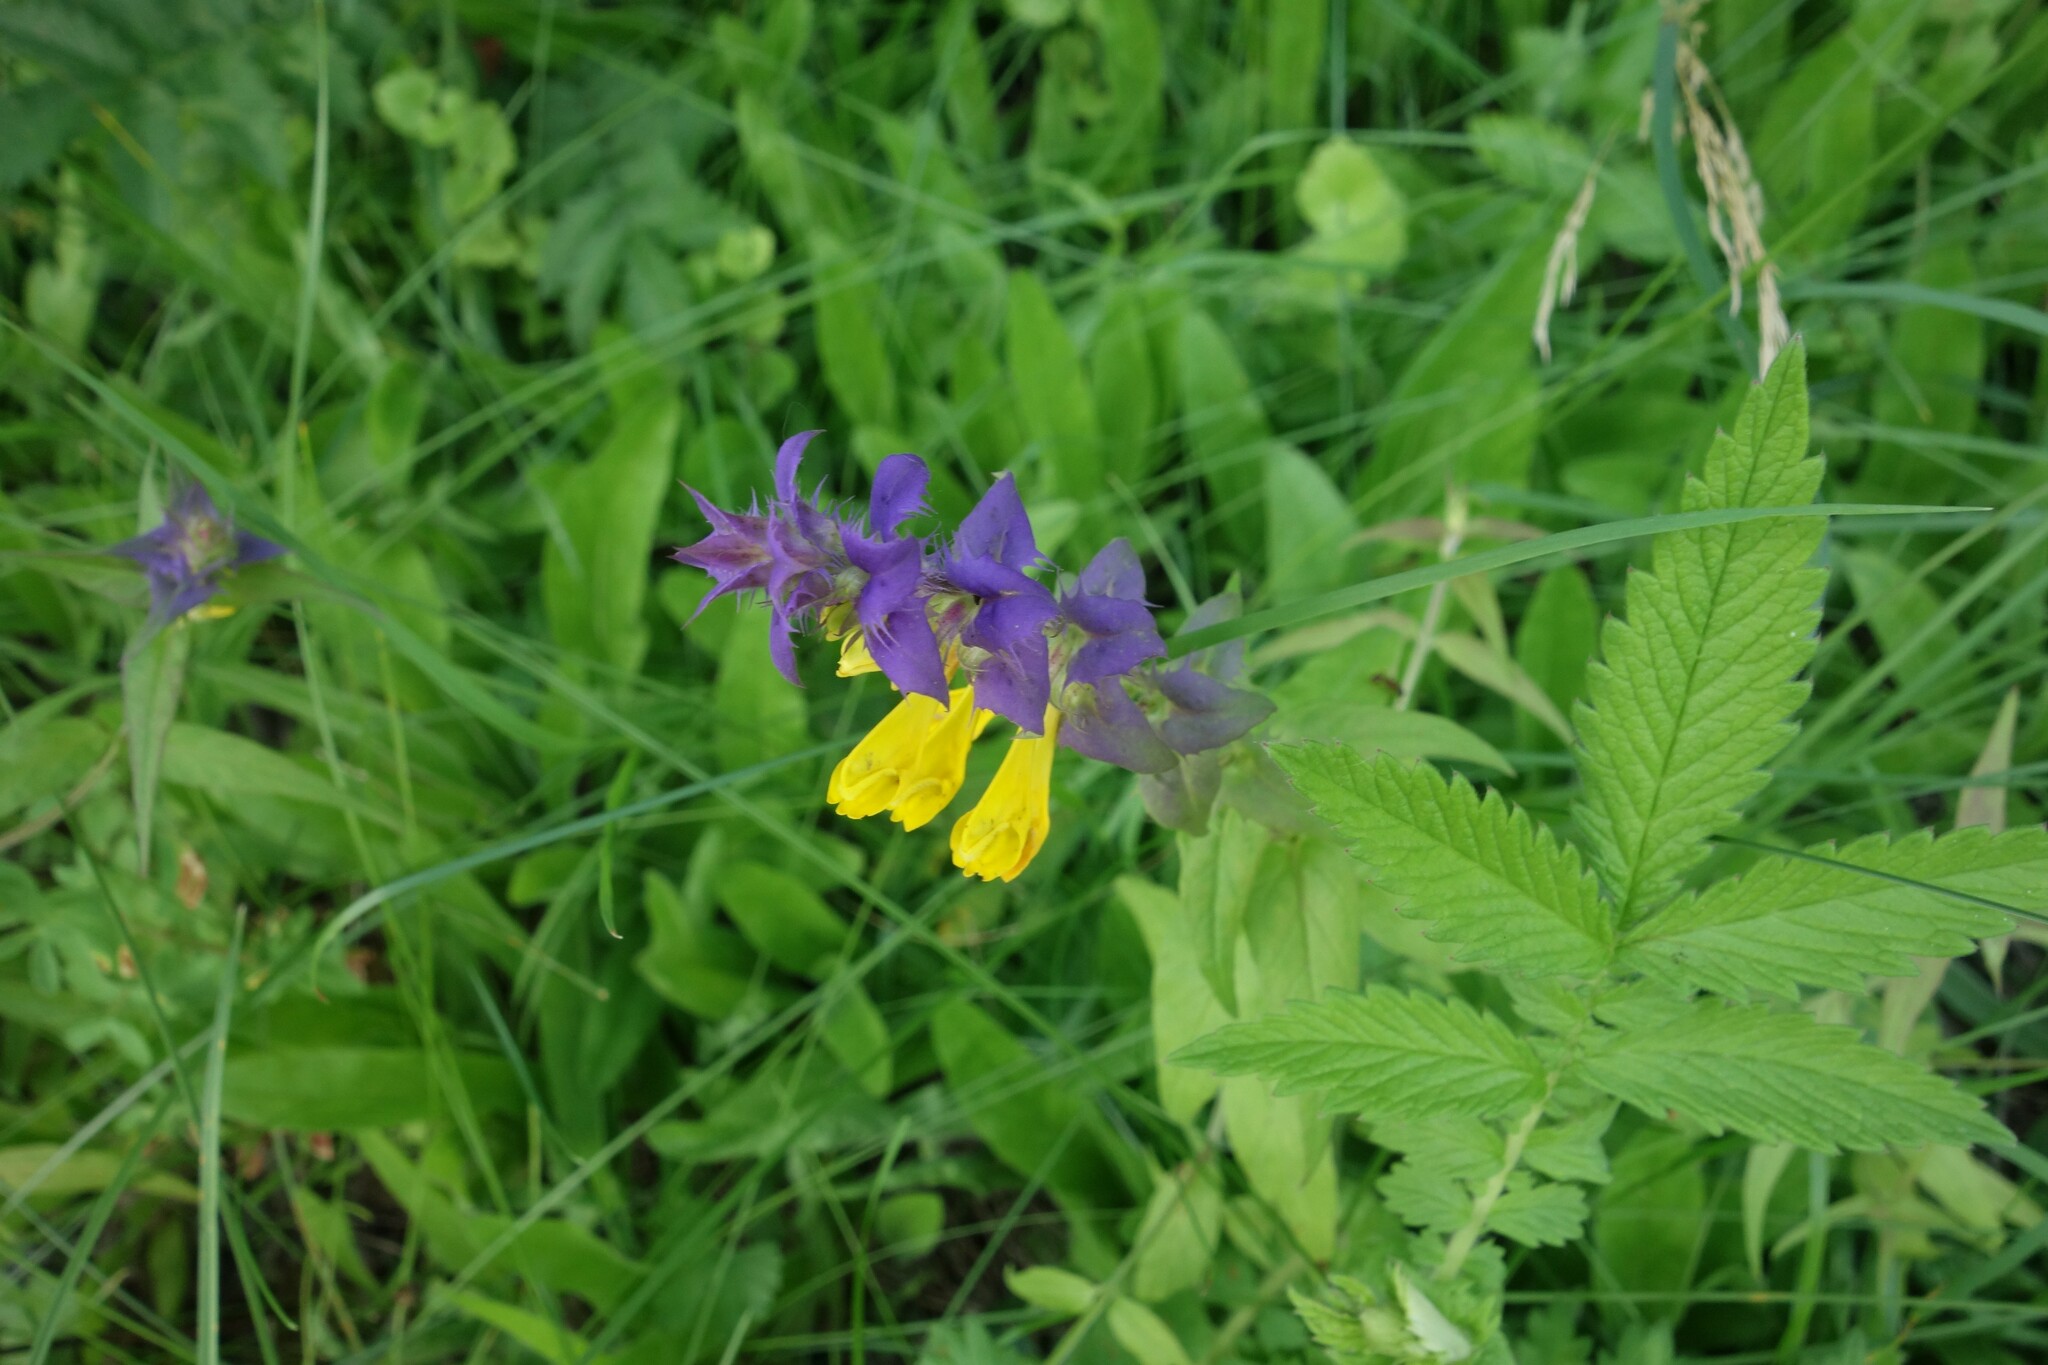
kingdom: Plantae
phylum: Tracheophyta
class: Magnoliopsida
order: Lamiales
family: Orobanchaceae
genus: Melampyrum
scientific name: Melampyrum nemorosum
